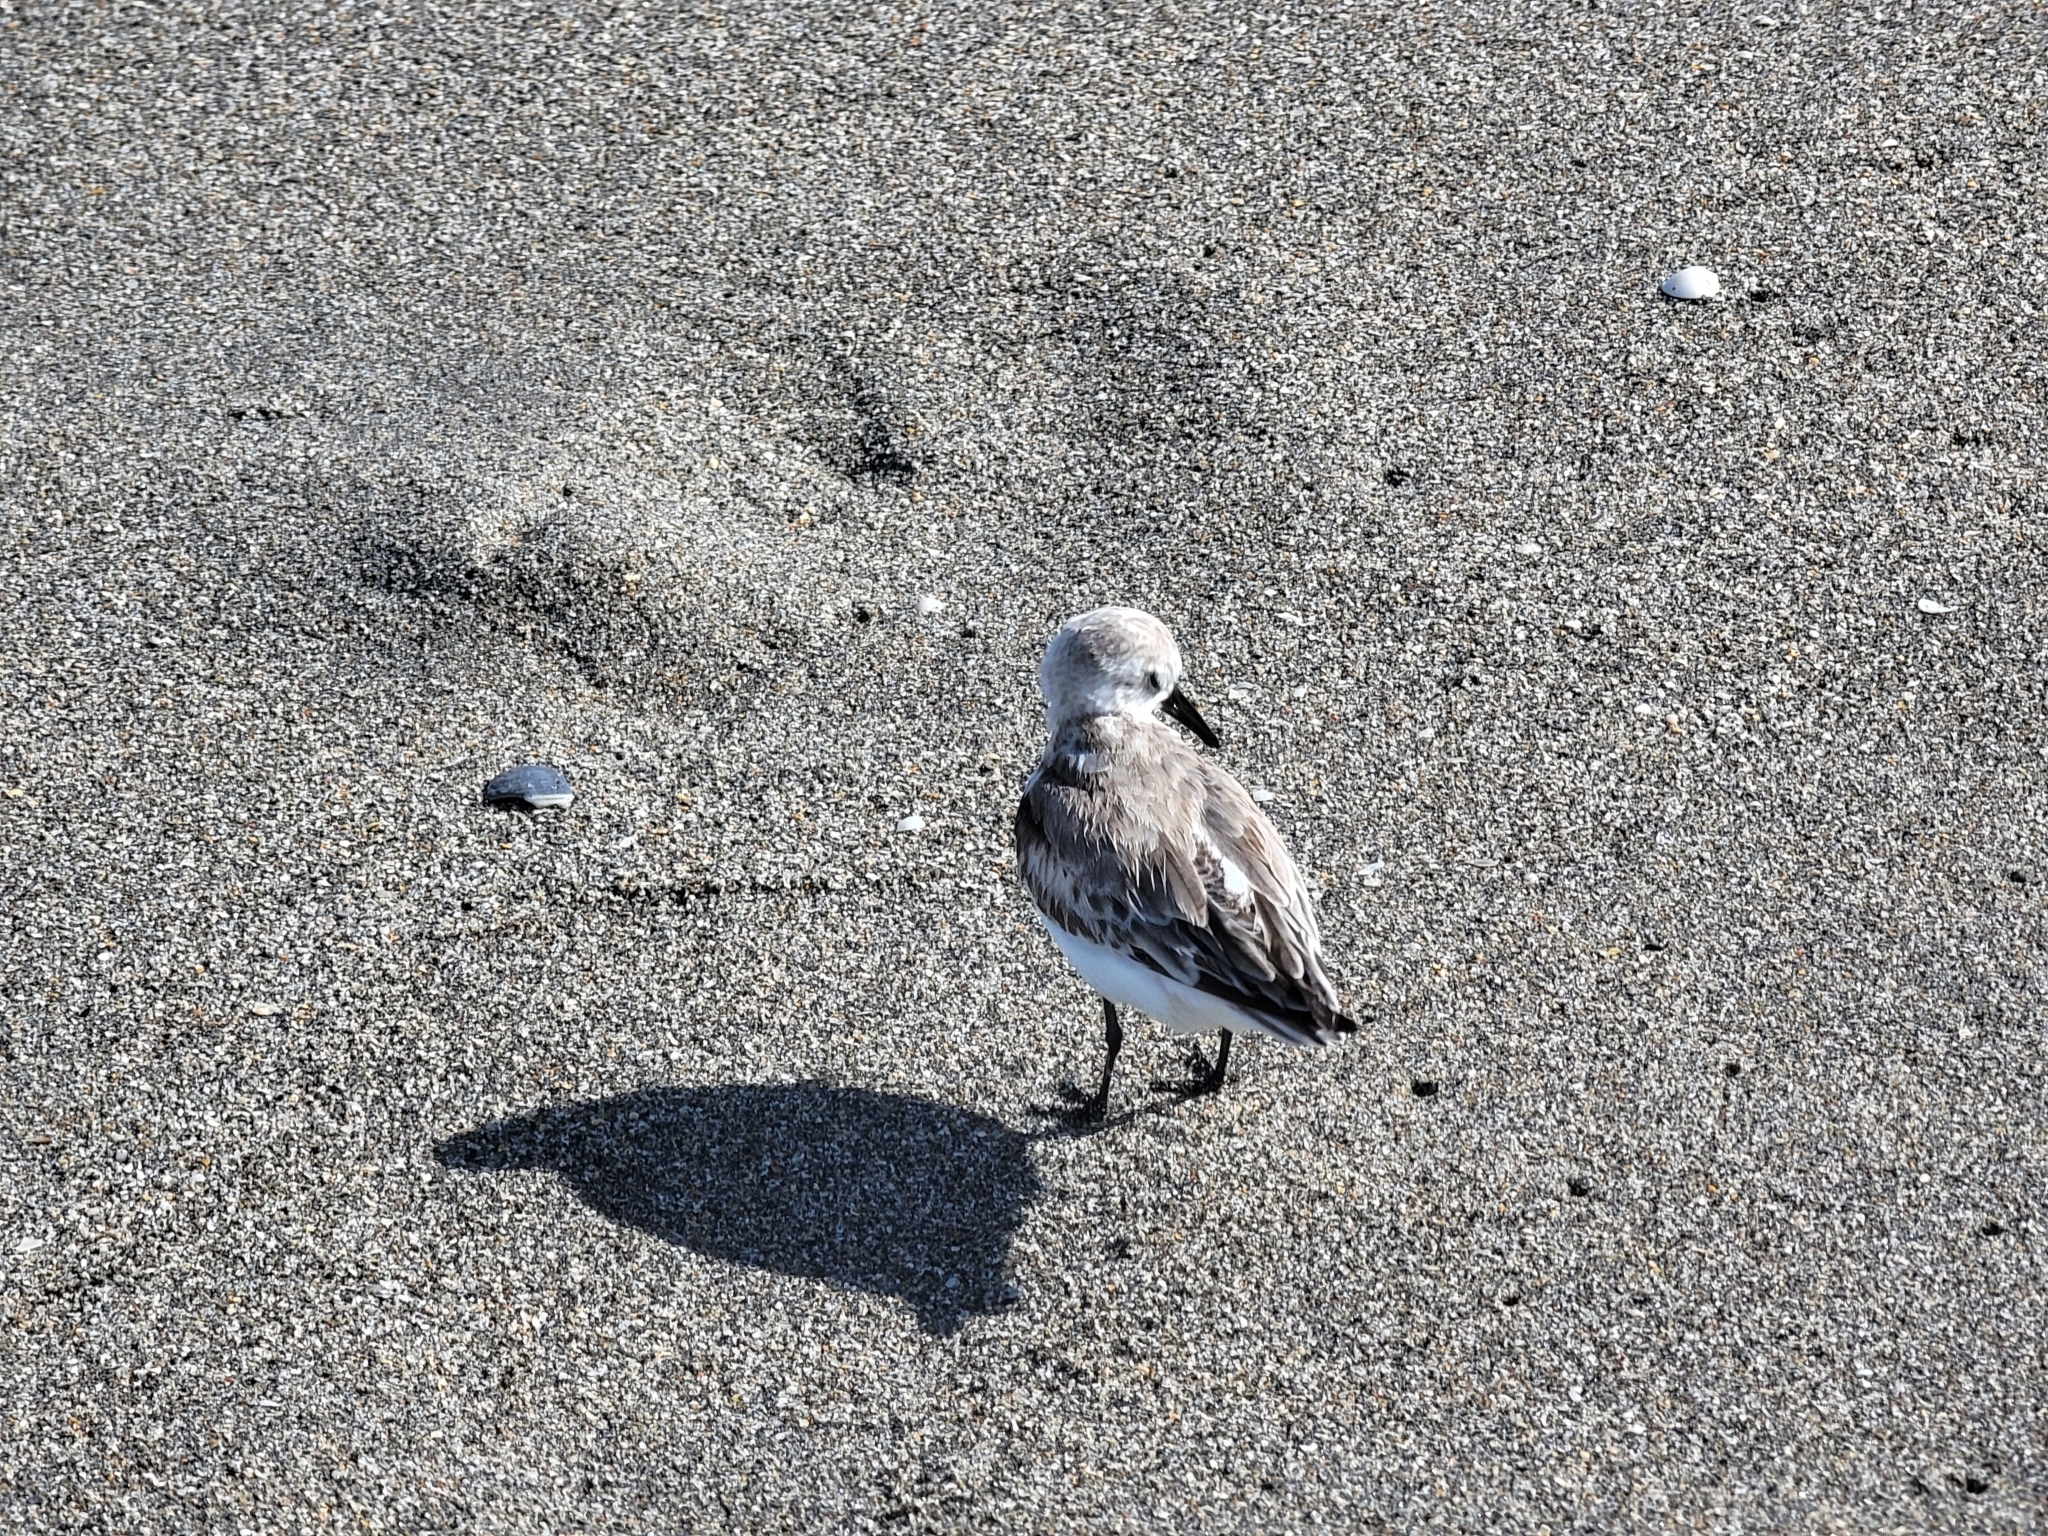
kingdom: Animalia
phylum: Chordata
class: Aves
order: Charadriiformes
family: Scolopacidae
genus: Calidris
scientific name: Calidris alba
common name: Sanderling
